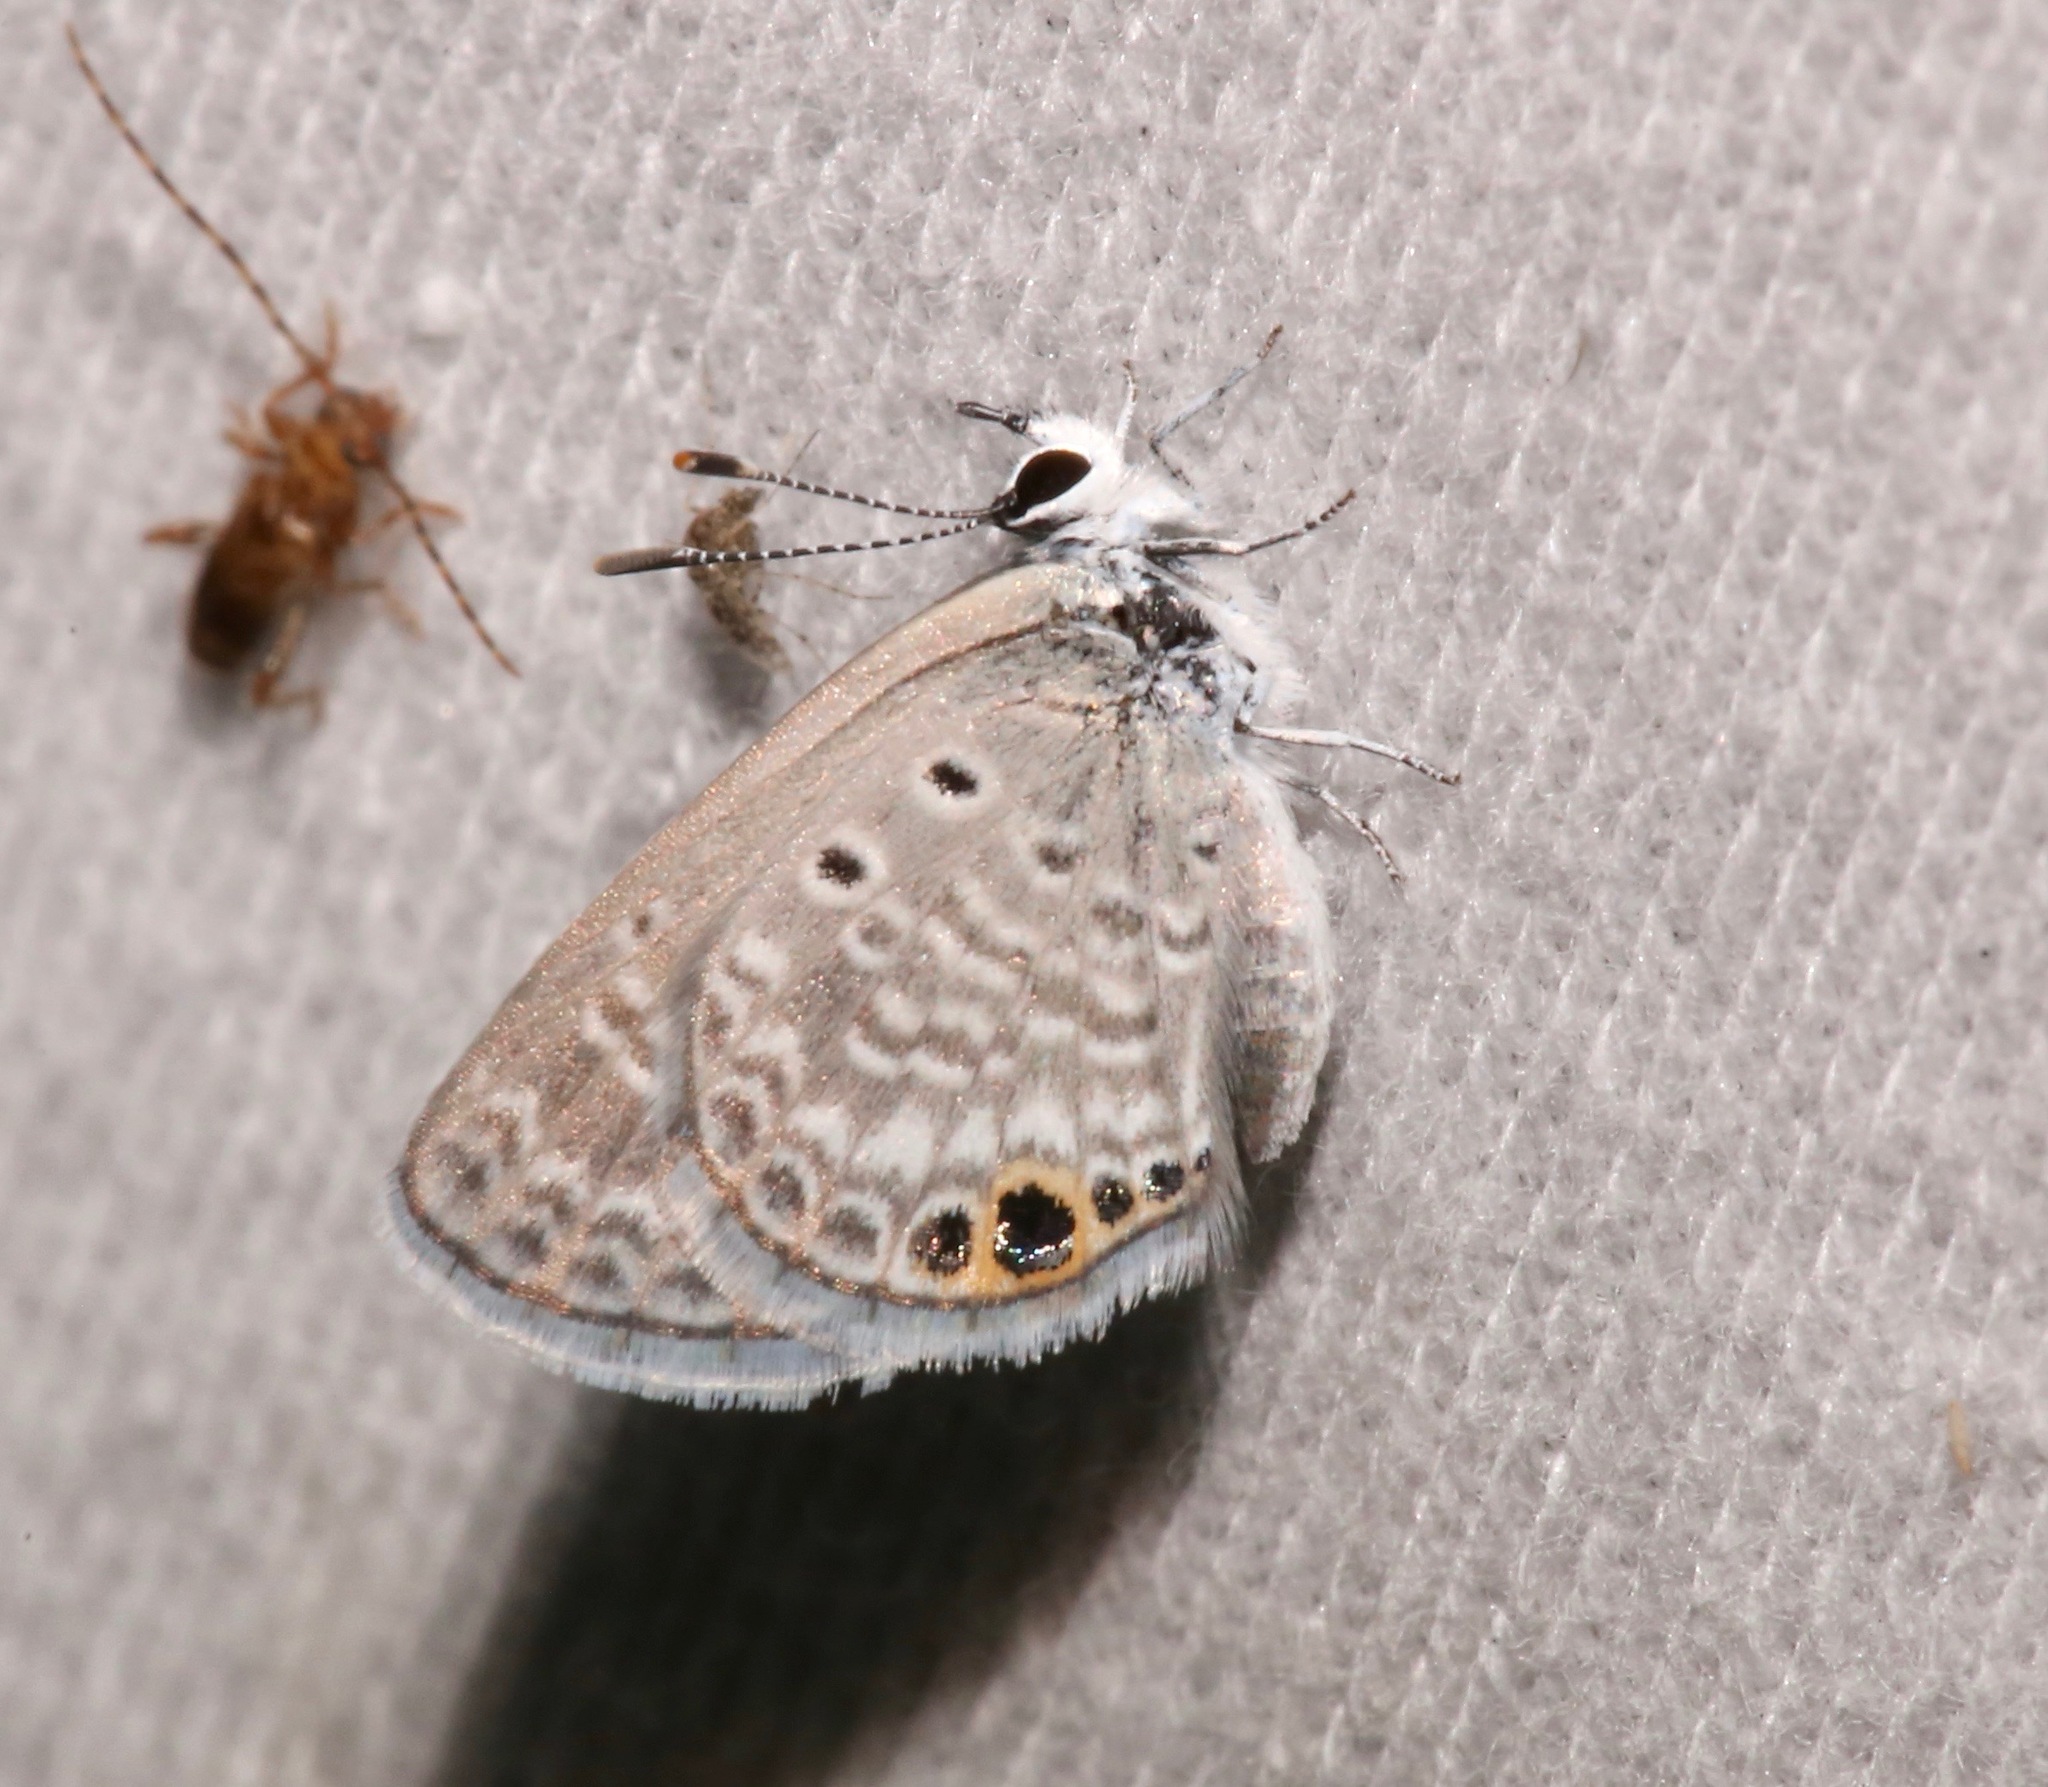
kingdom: Animalia
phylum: Arthropoda
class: Insecta
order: Lepidoptera
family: Lycaenidae
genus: Hemiargus
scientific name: Hemiargus ceraunus
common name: Ceraunus blue
